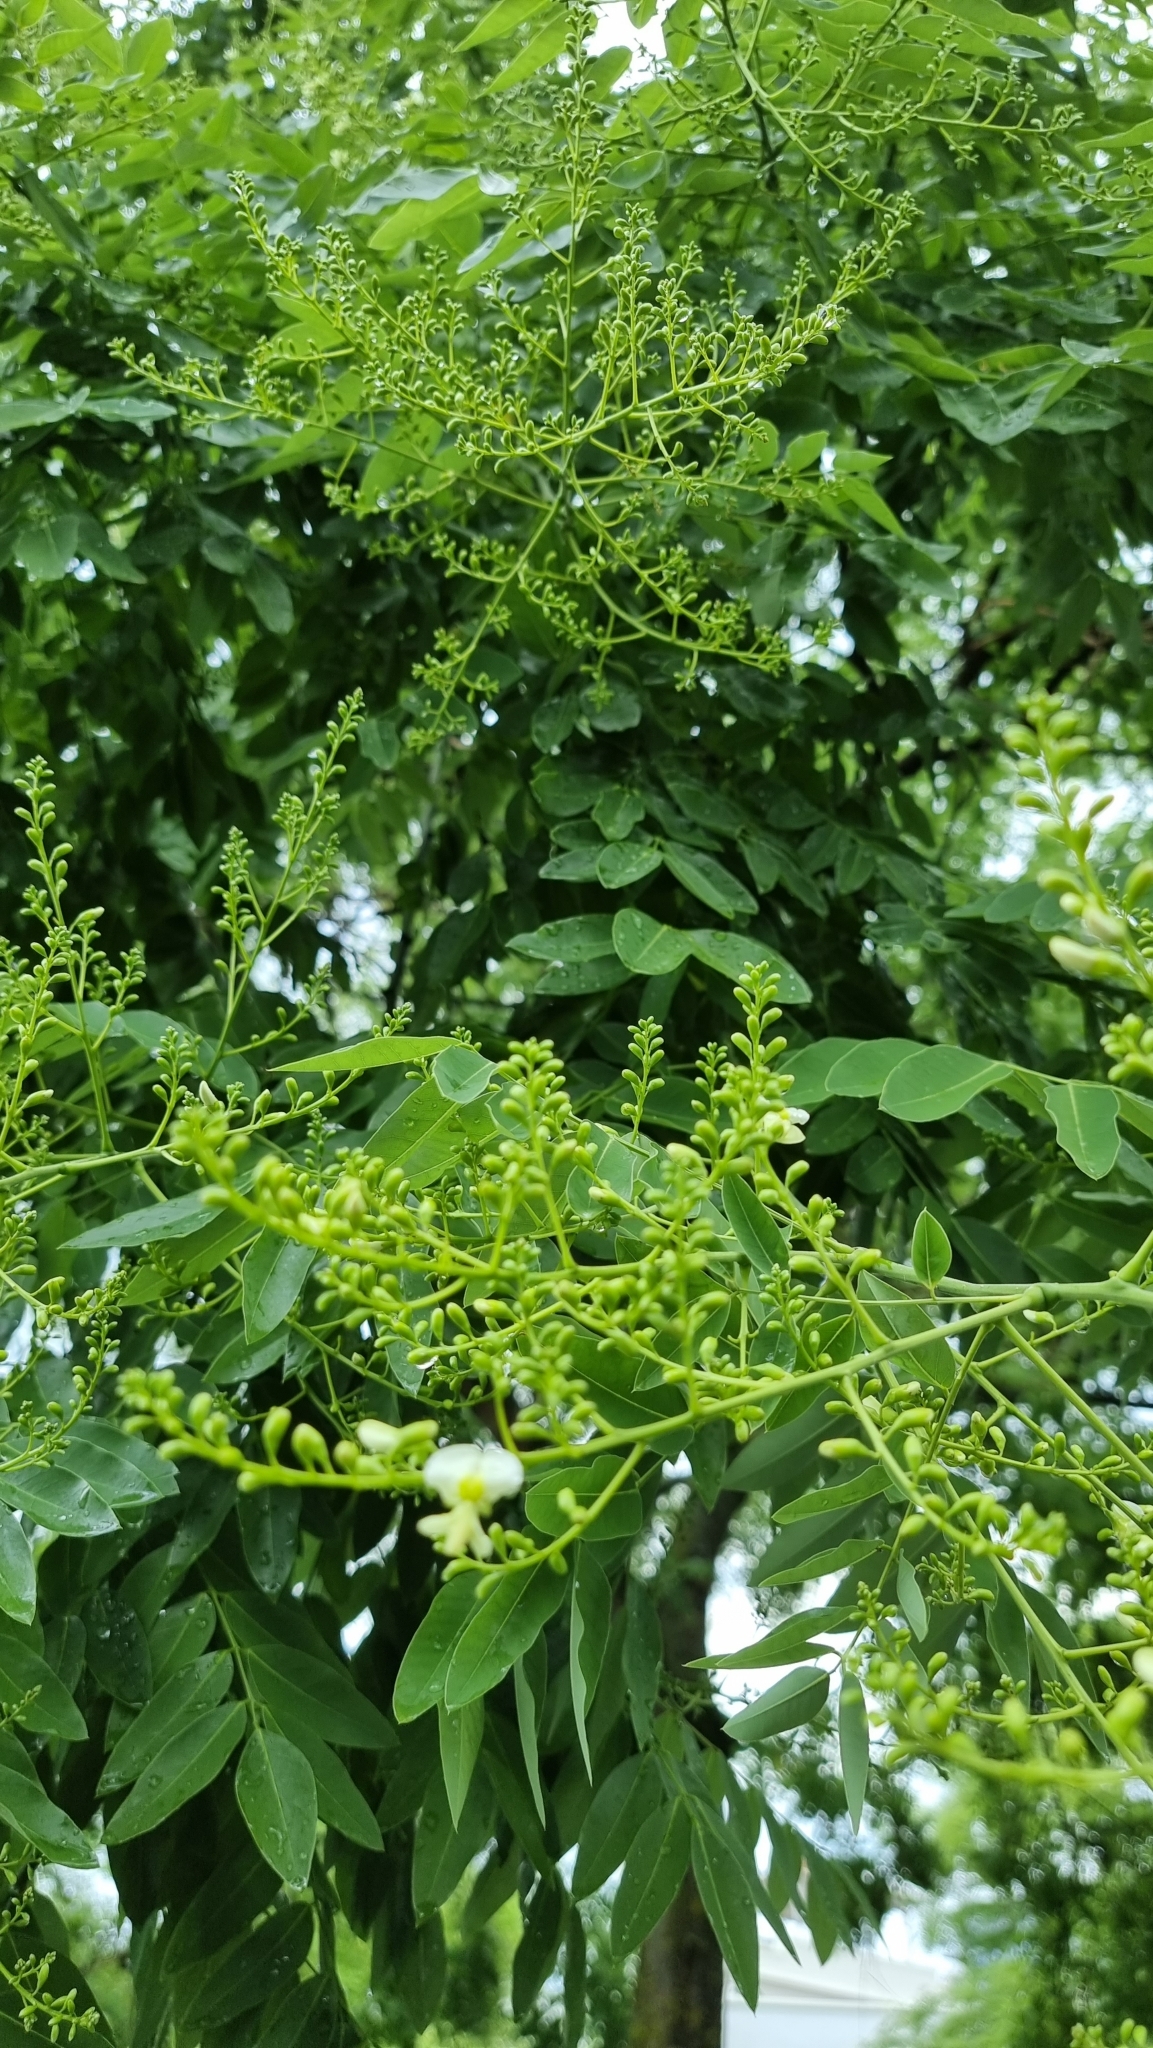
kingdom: Plantae
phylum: Tracheophyta
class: Magnoliopsida
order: Sapindales
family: Sapindaceae
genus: Koelreuteria
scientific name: Koelreuteria paniculata
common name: Pride-of-india
